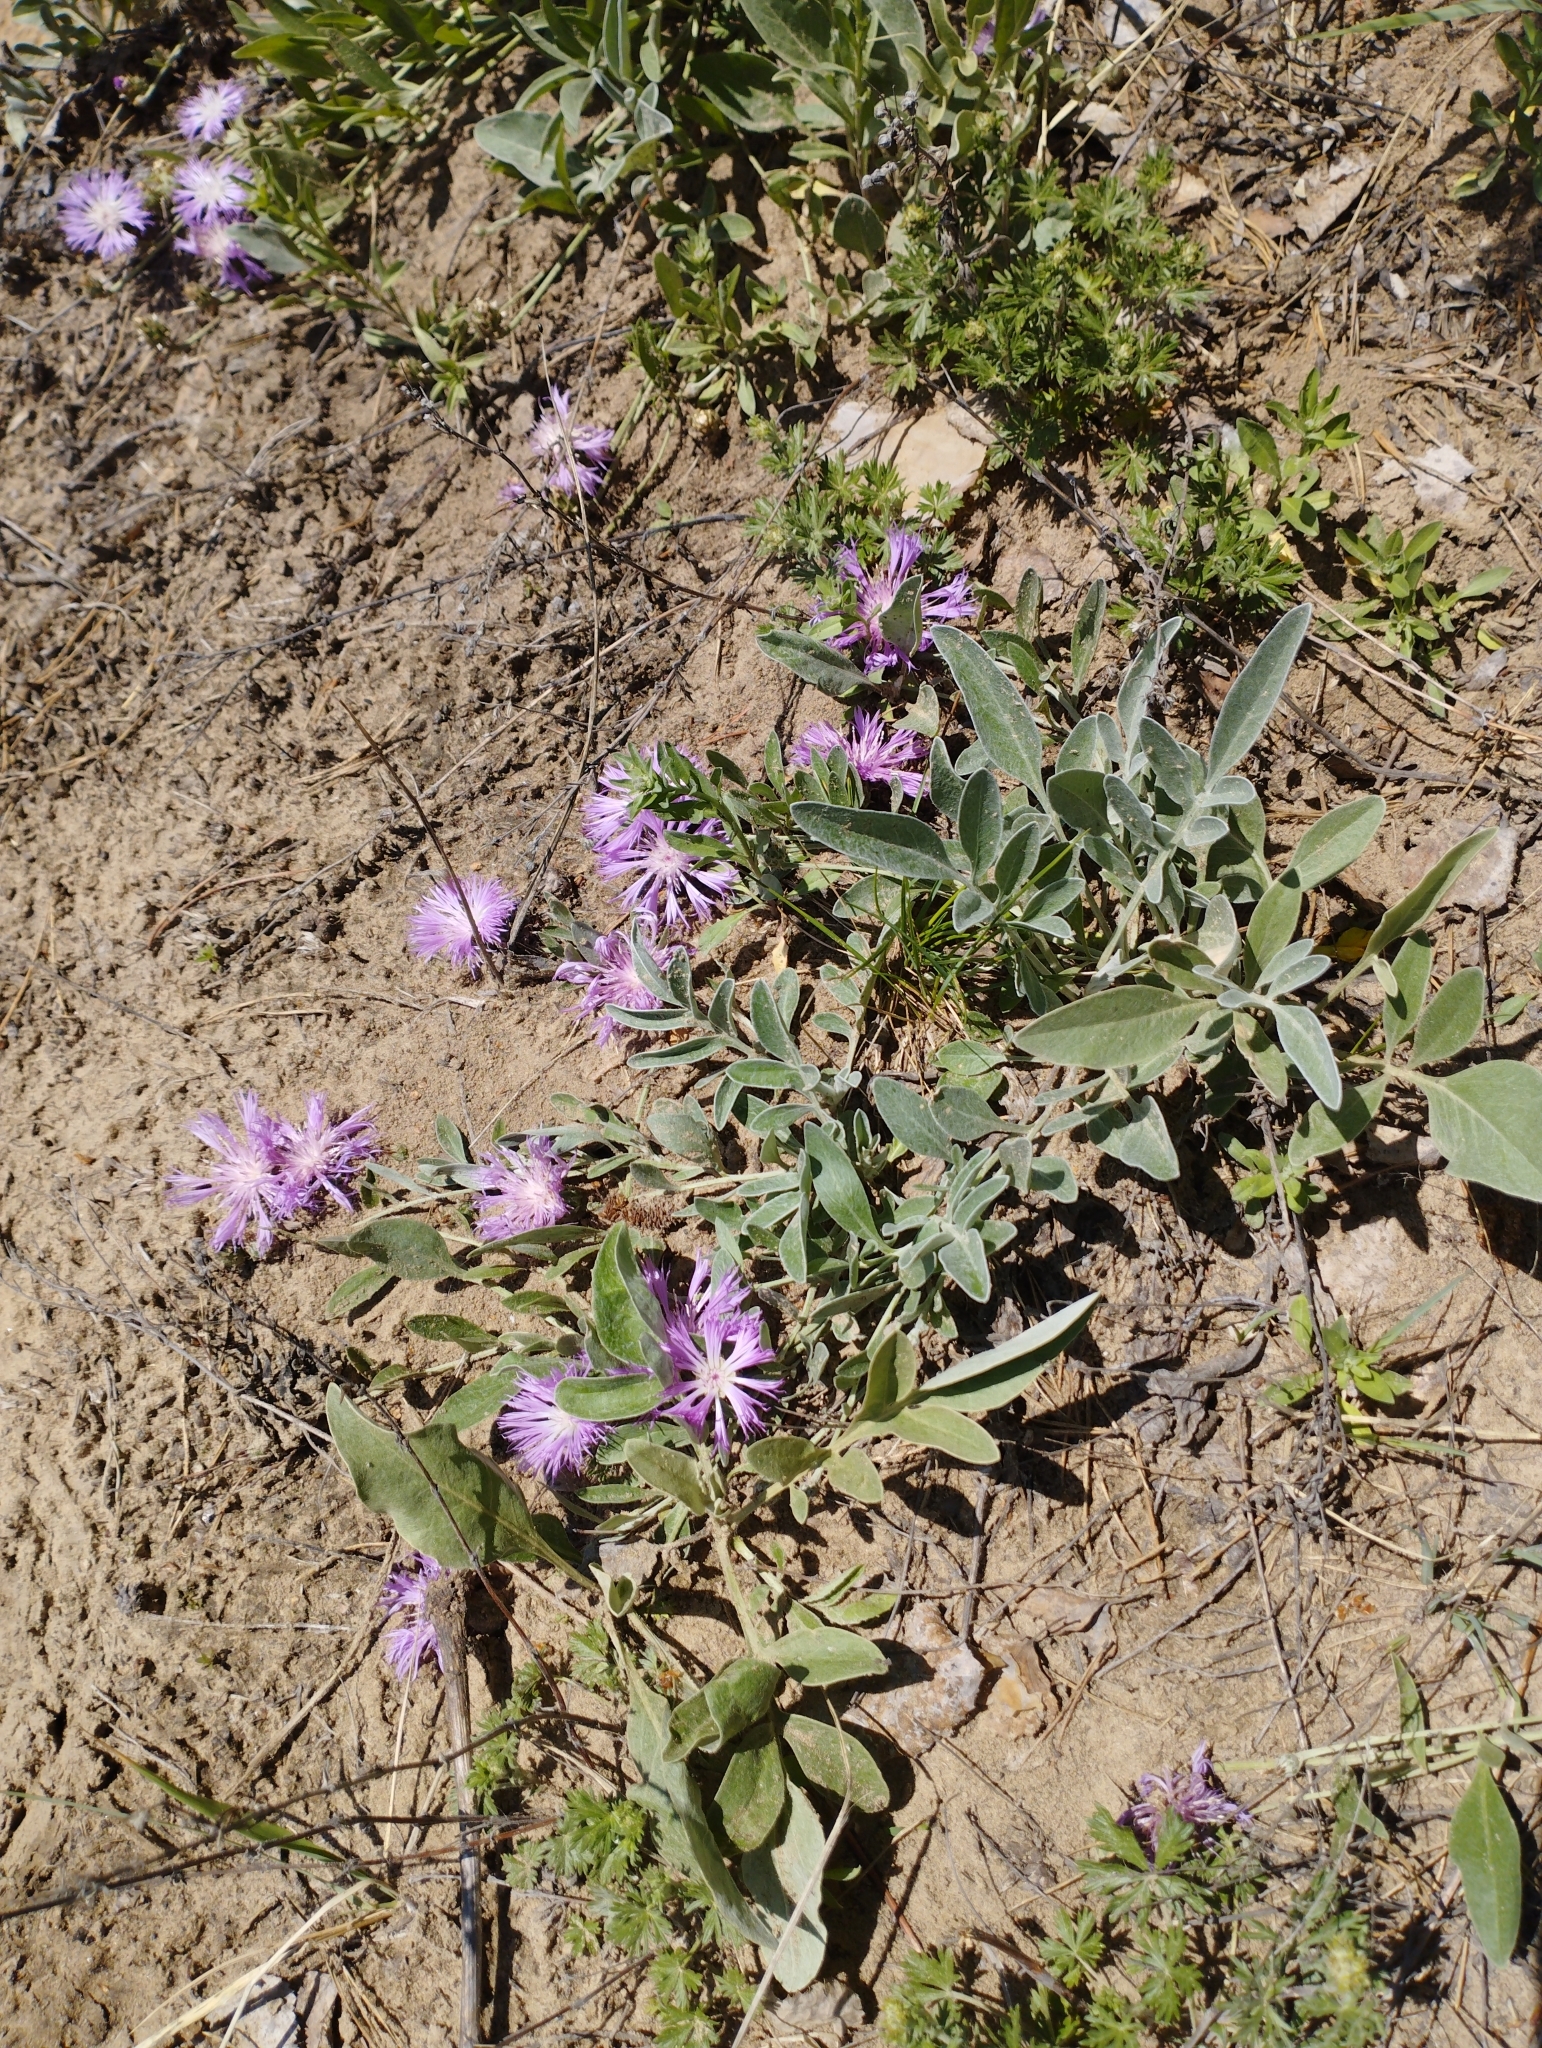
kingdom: Plantae
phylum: Tracheophyta
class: Magnoliopsida
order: Asterales
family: Asteraceae
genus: Psephellus
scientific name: Psephellus sumensis
